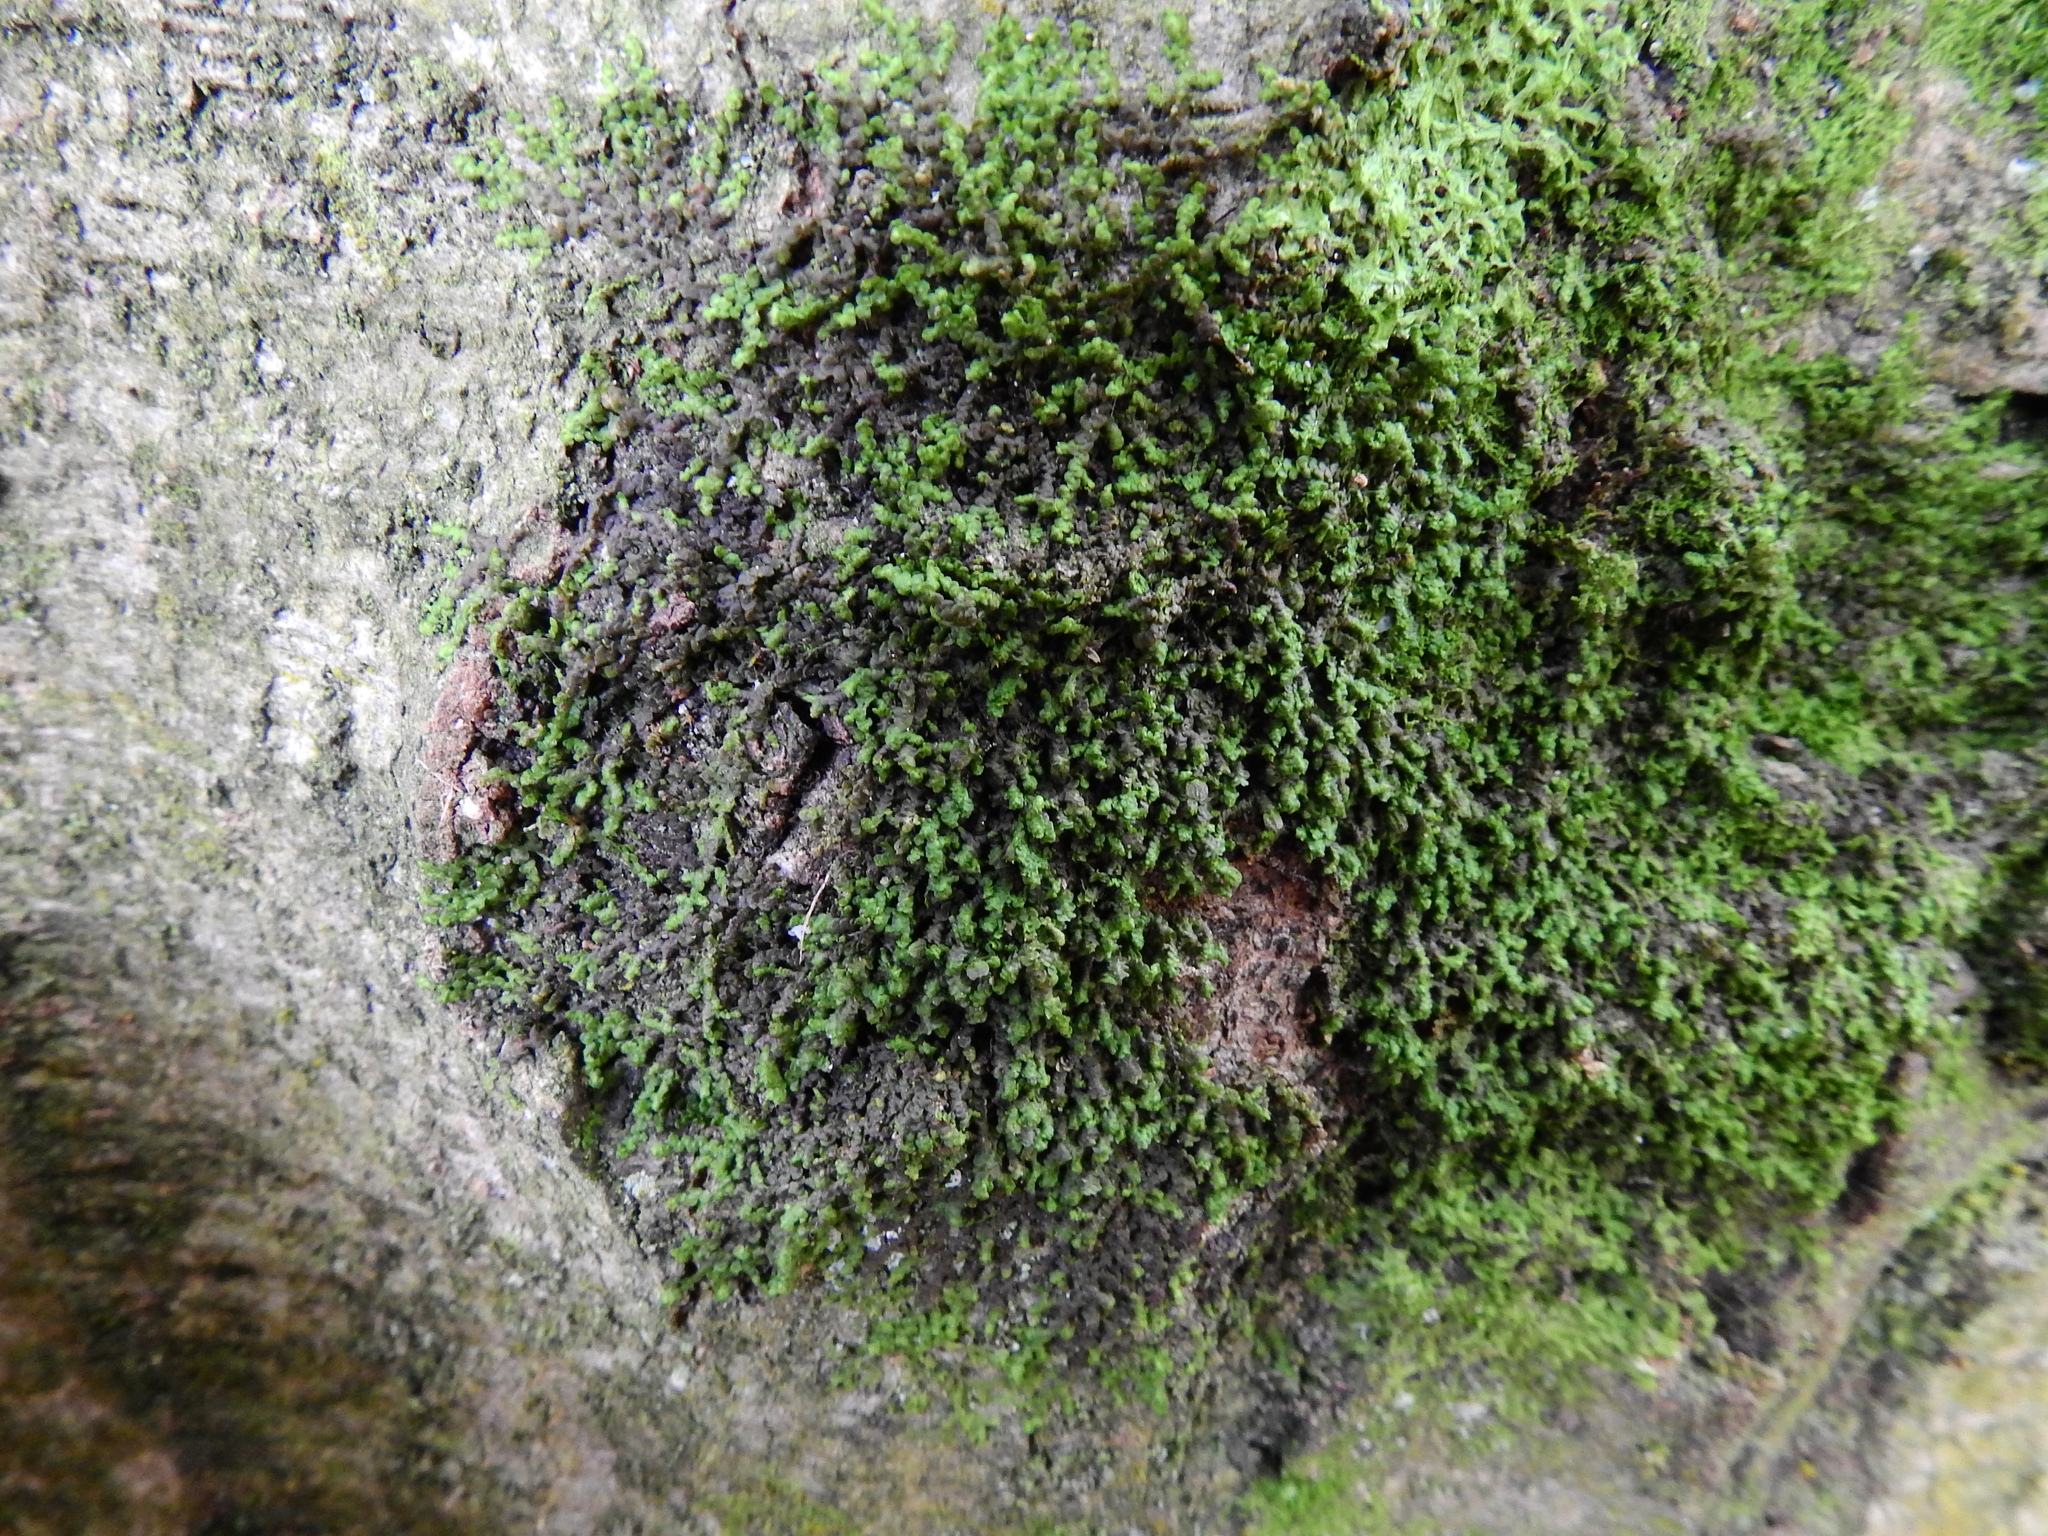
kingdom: Plantae
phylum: Marchantiophyta
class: Jungermanniopsida
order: Porellales
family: Frullaniaceae
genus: Frullania
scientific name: Frullania dilatata
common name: Dilated scalewort
